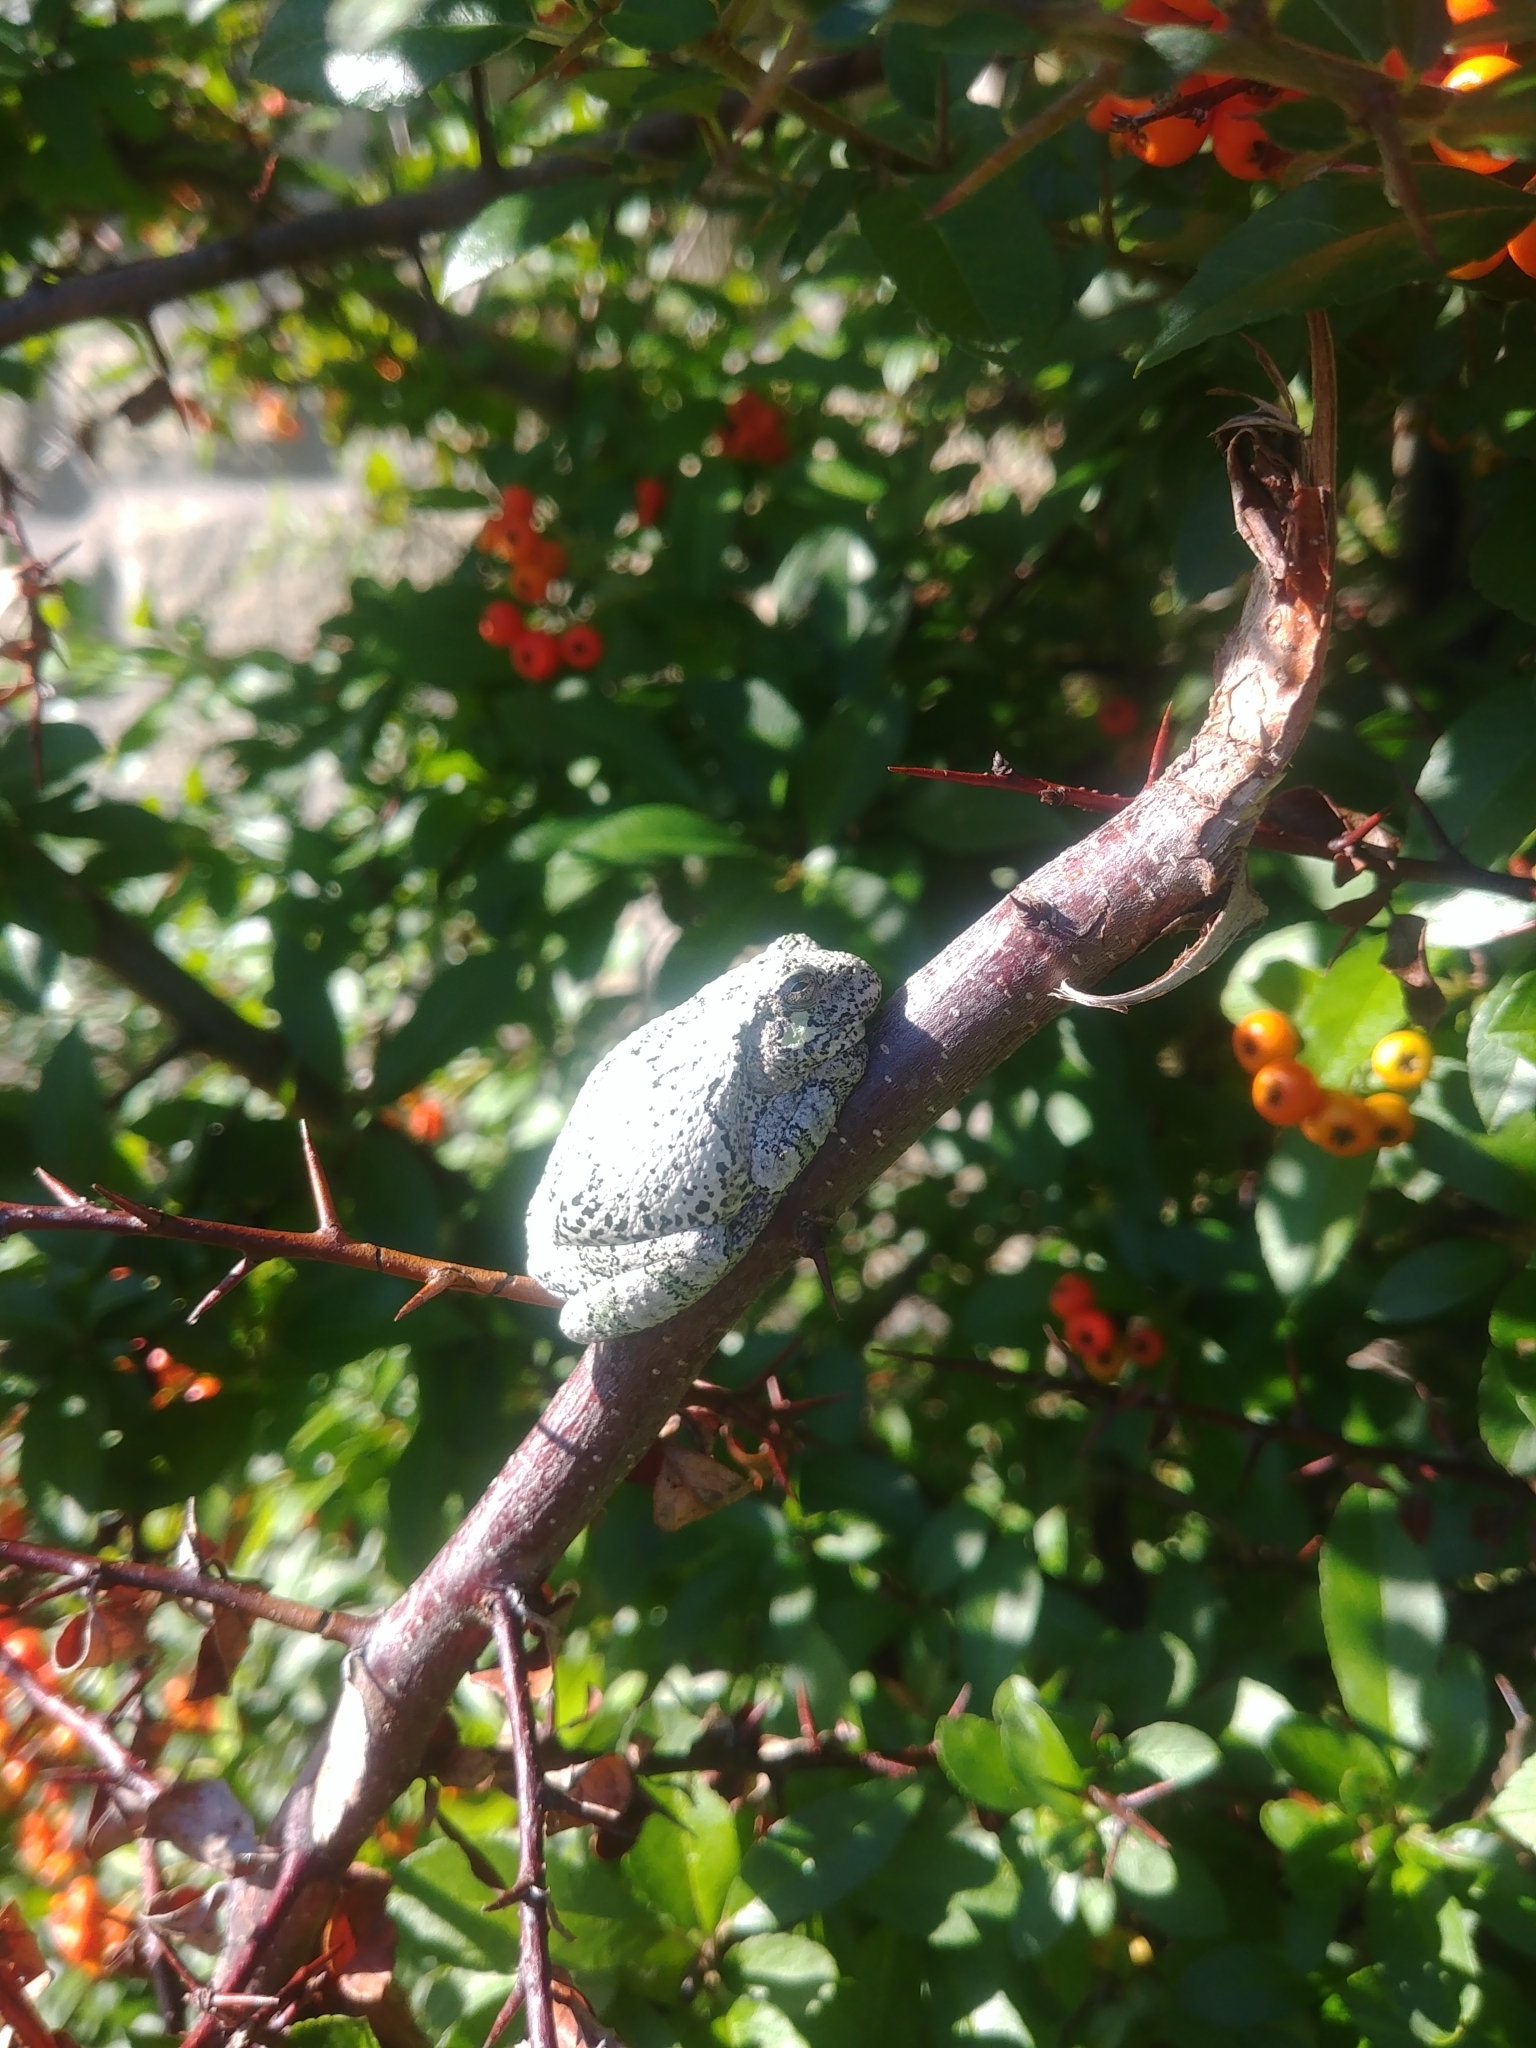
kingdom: Animalia
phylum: Chordata
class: Amphibia
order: Anura
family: Hylidae
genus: Dryophytes
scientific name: Dryophytes versicolor
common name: Gray treefrog
